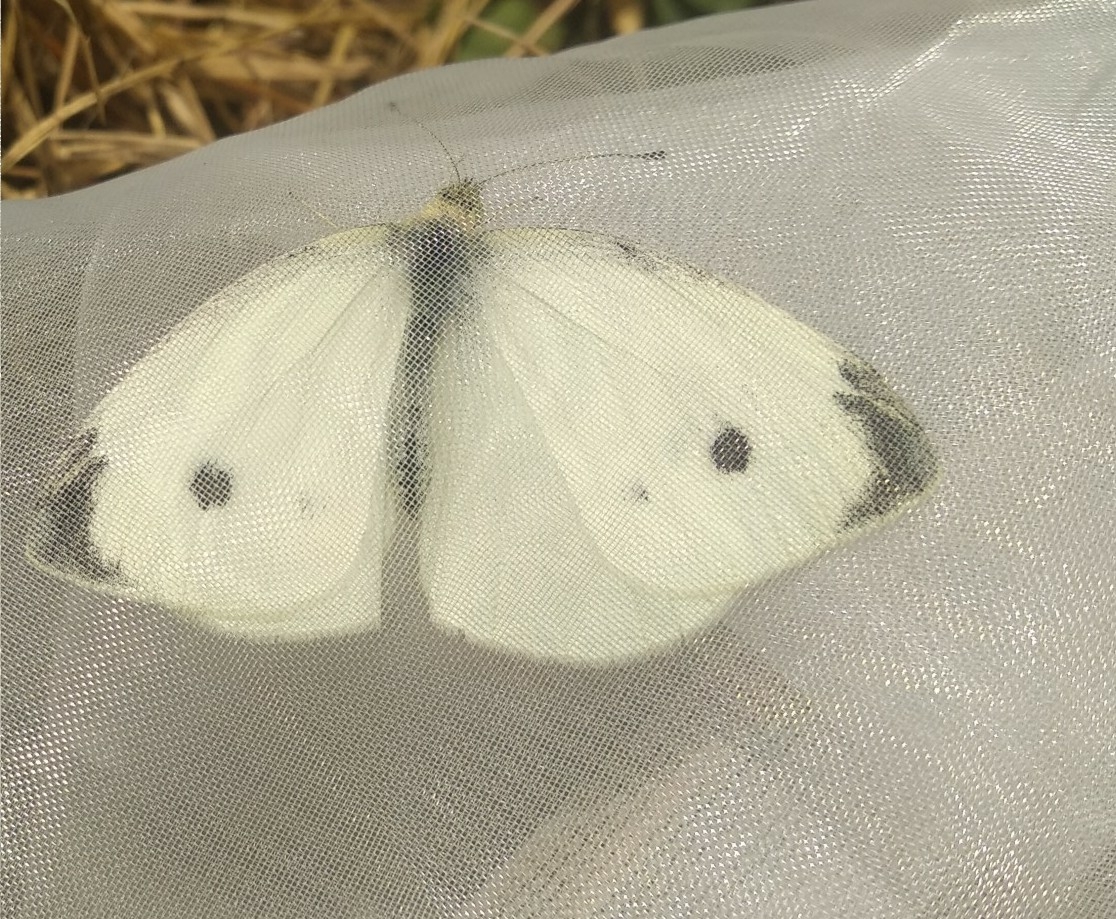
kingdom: Animalia
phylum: Arthropoda
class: Insecta
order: Lepidoptera
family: Pieridae
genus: Pieris
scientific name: Pieris rapae
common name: Small white
